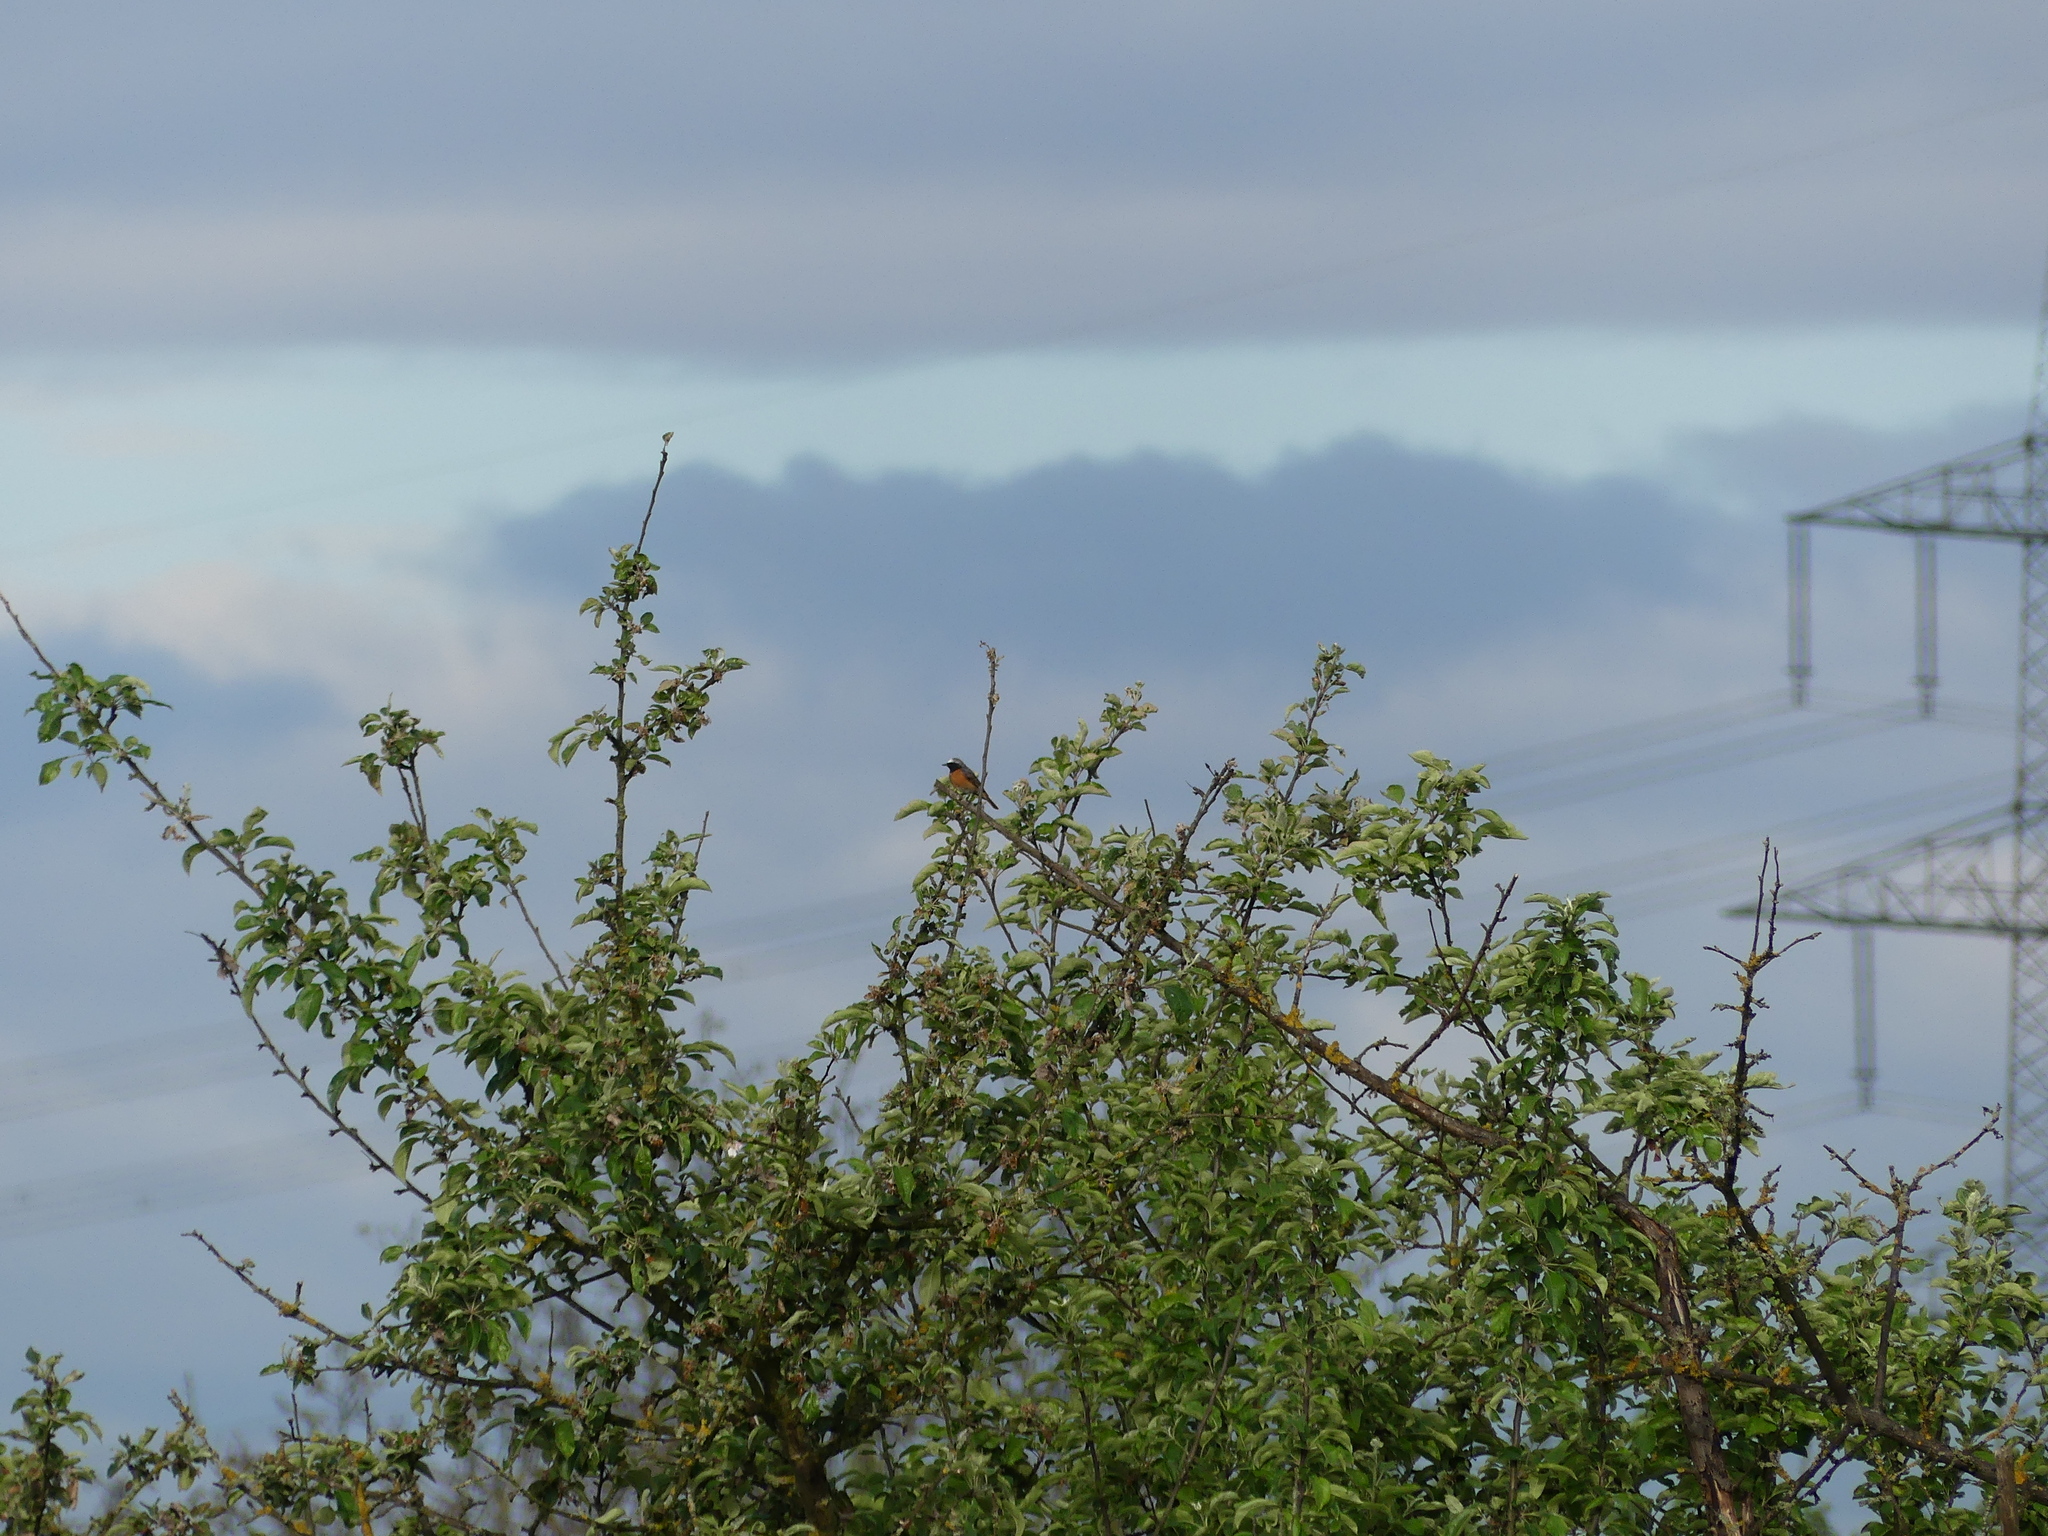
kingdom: Animalia
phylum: Chordata
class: Aves
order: Passeriformes
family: Muscicapidae
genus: Phoenicurus
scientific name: Phoenicurus phoenicurus
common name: Common redstart
